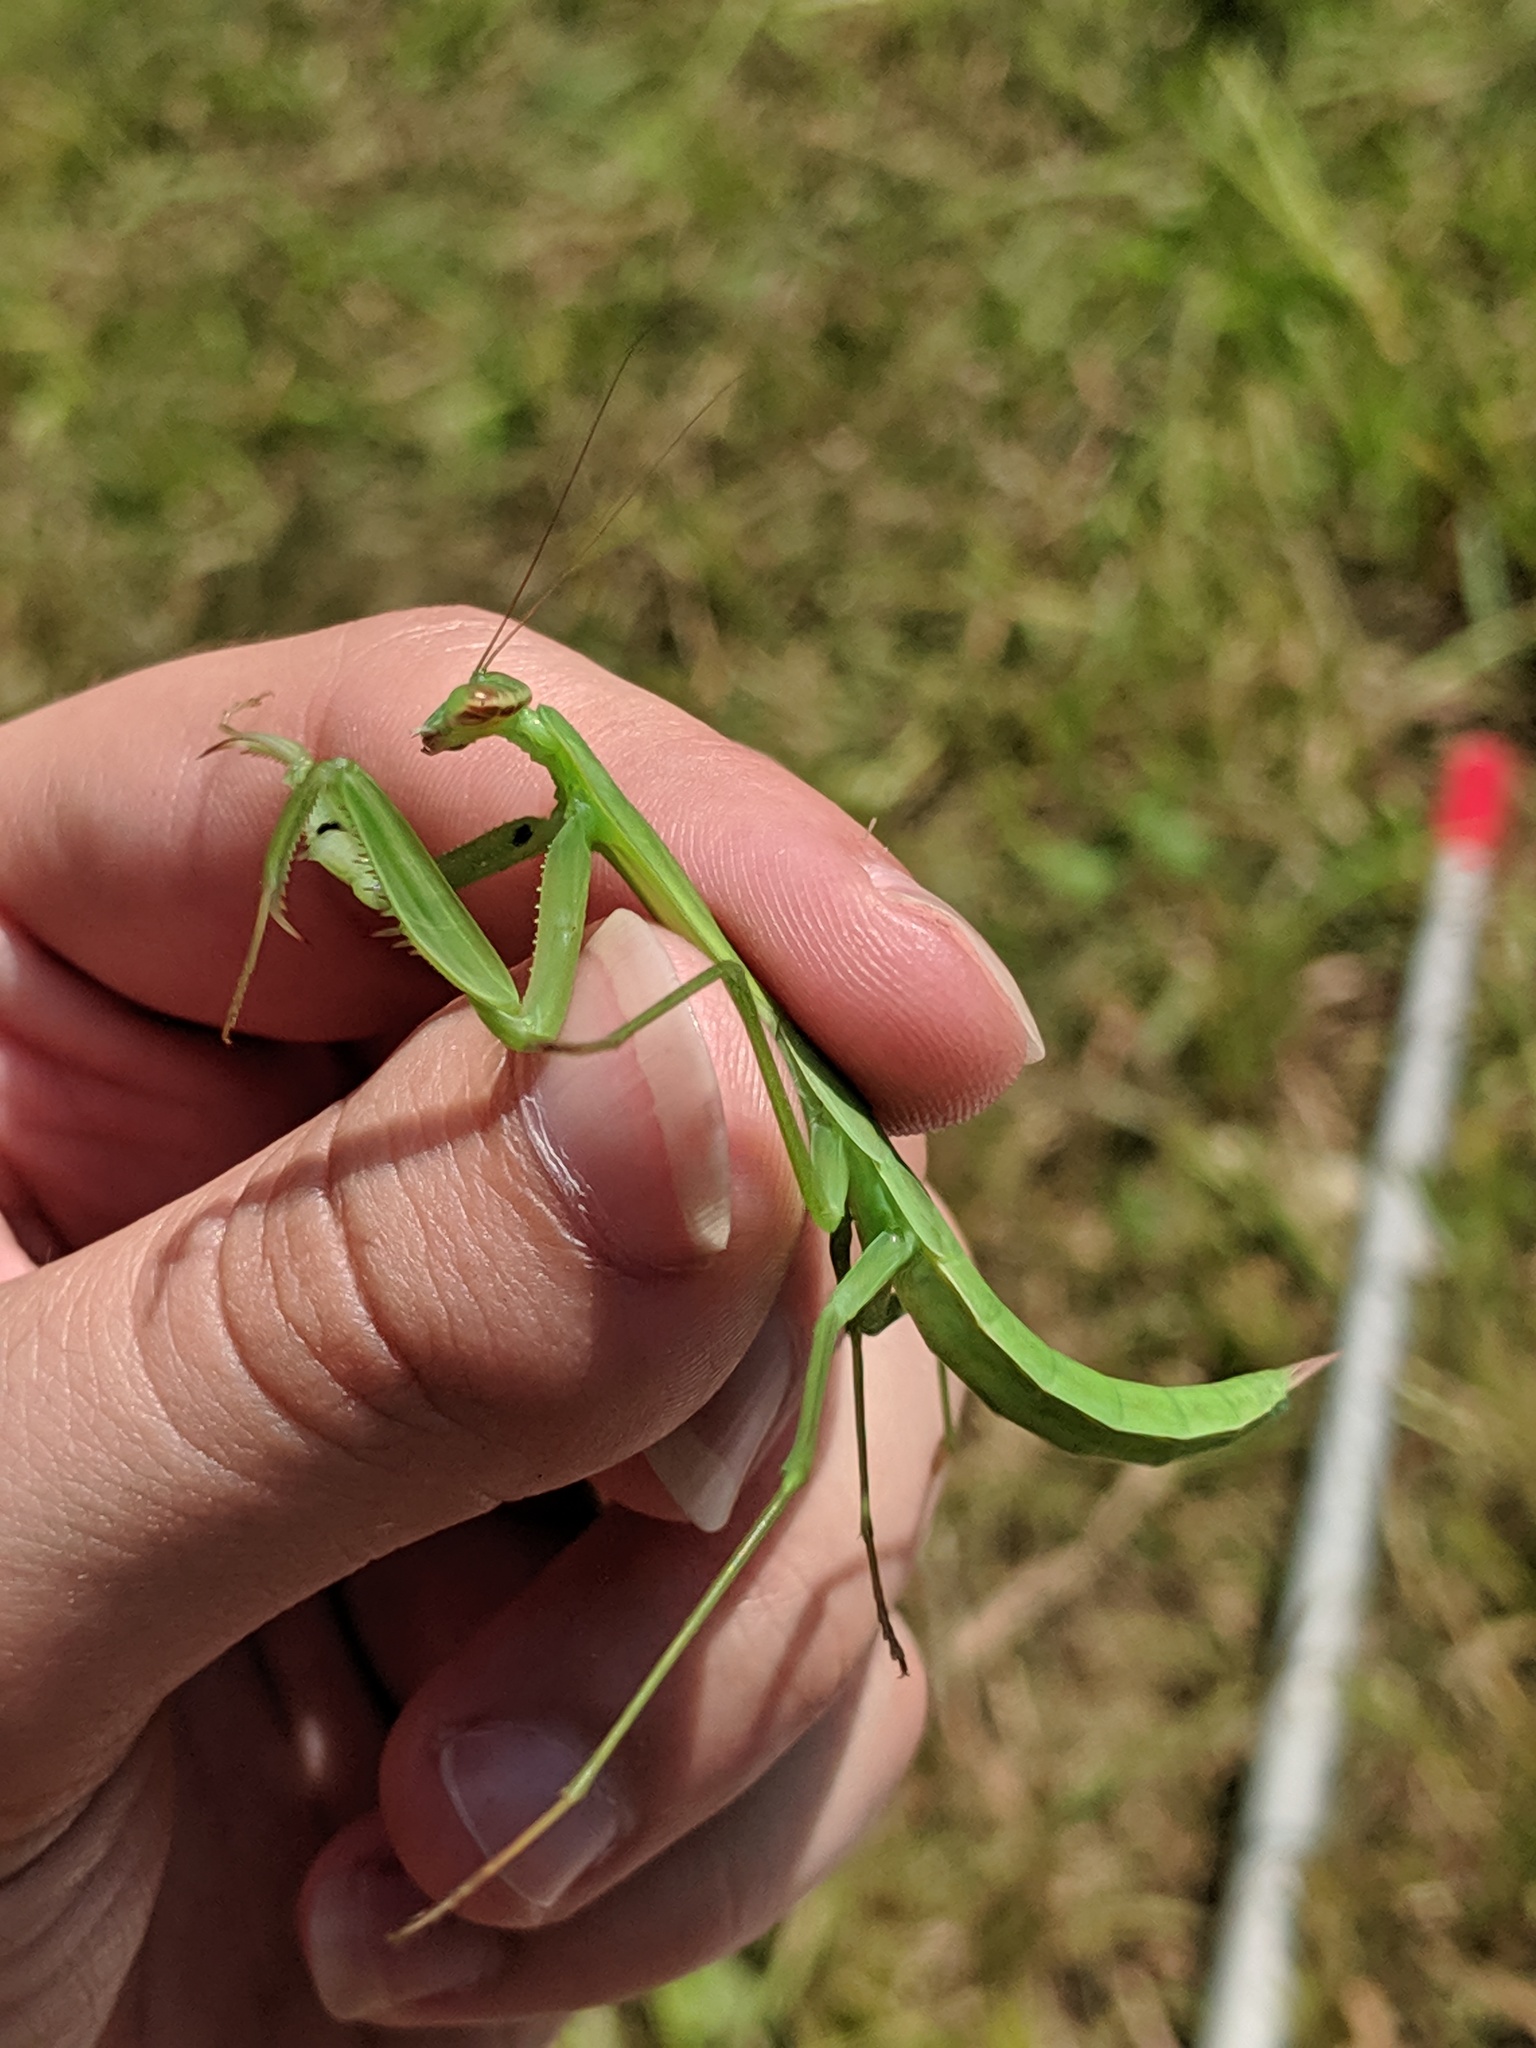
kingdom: Animalia
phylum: Arthropoda
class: Insecta
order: Mantodea
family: Mantidae
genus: Mantis
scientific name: Mantis religiosa
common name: Praying mantis
